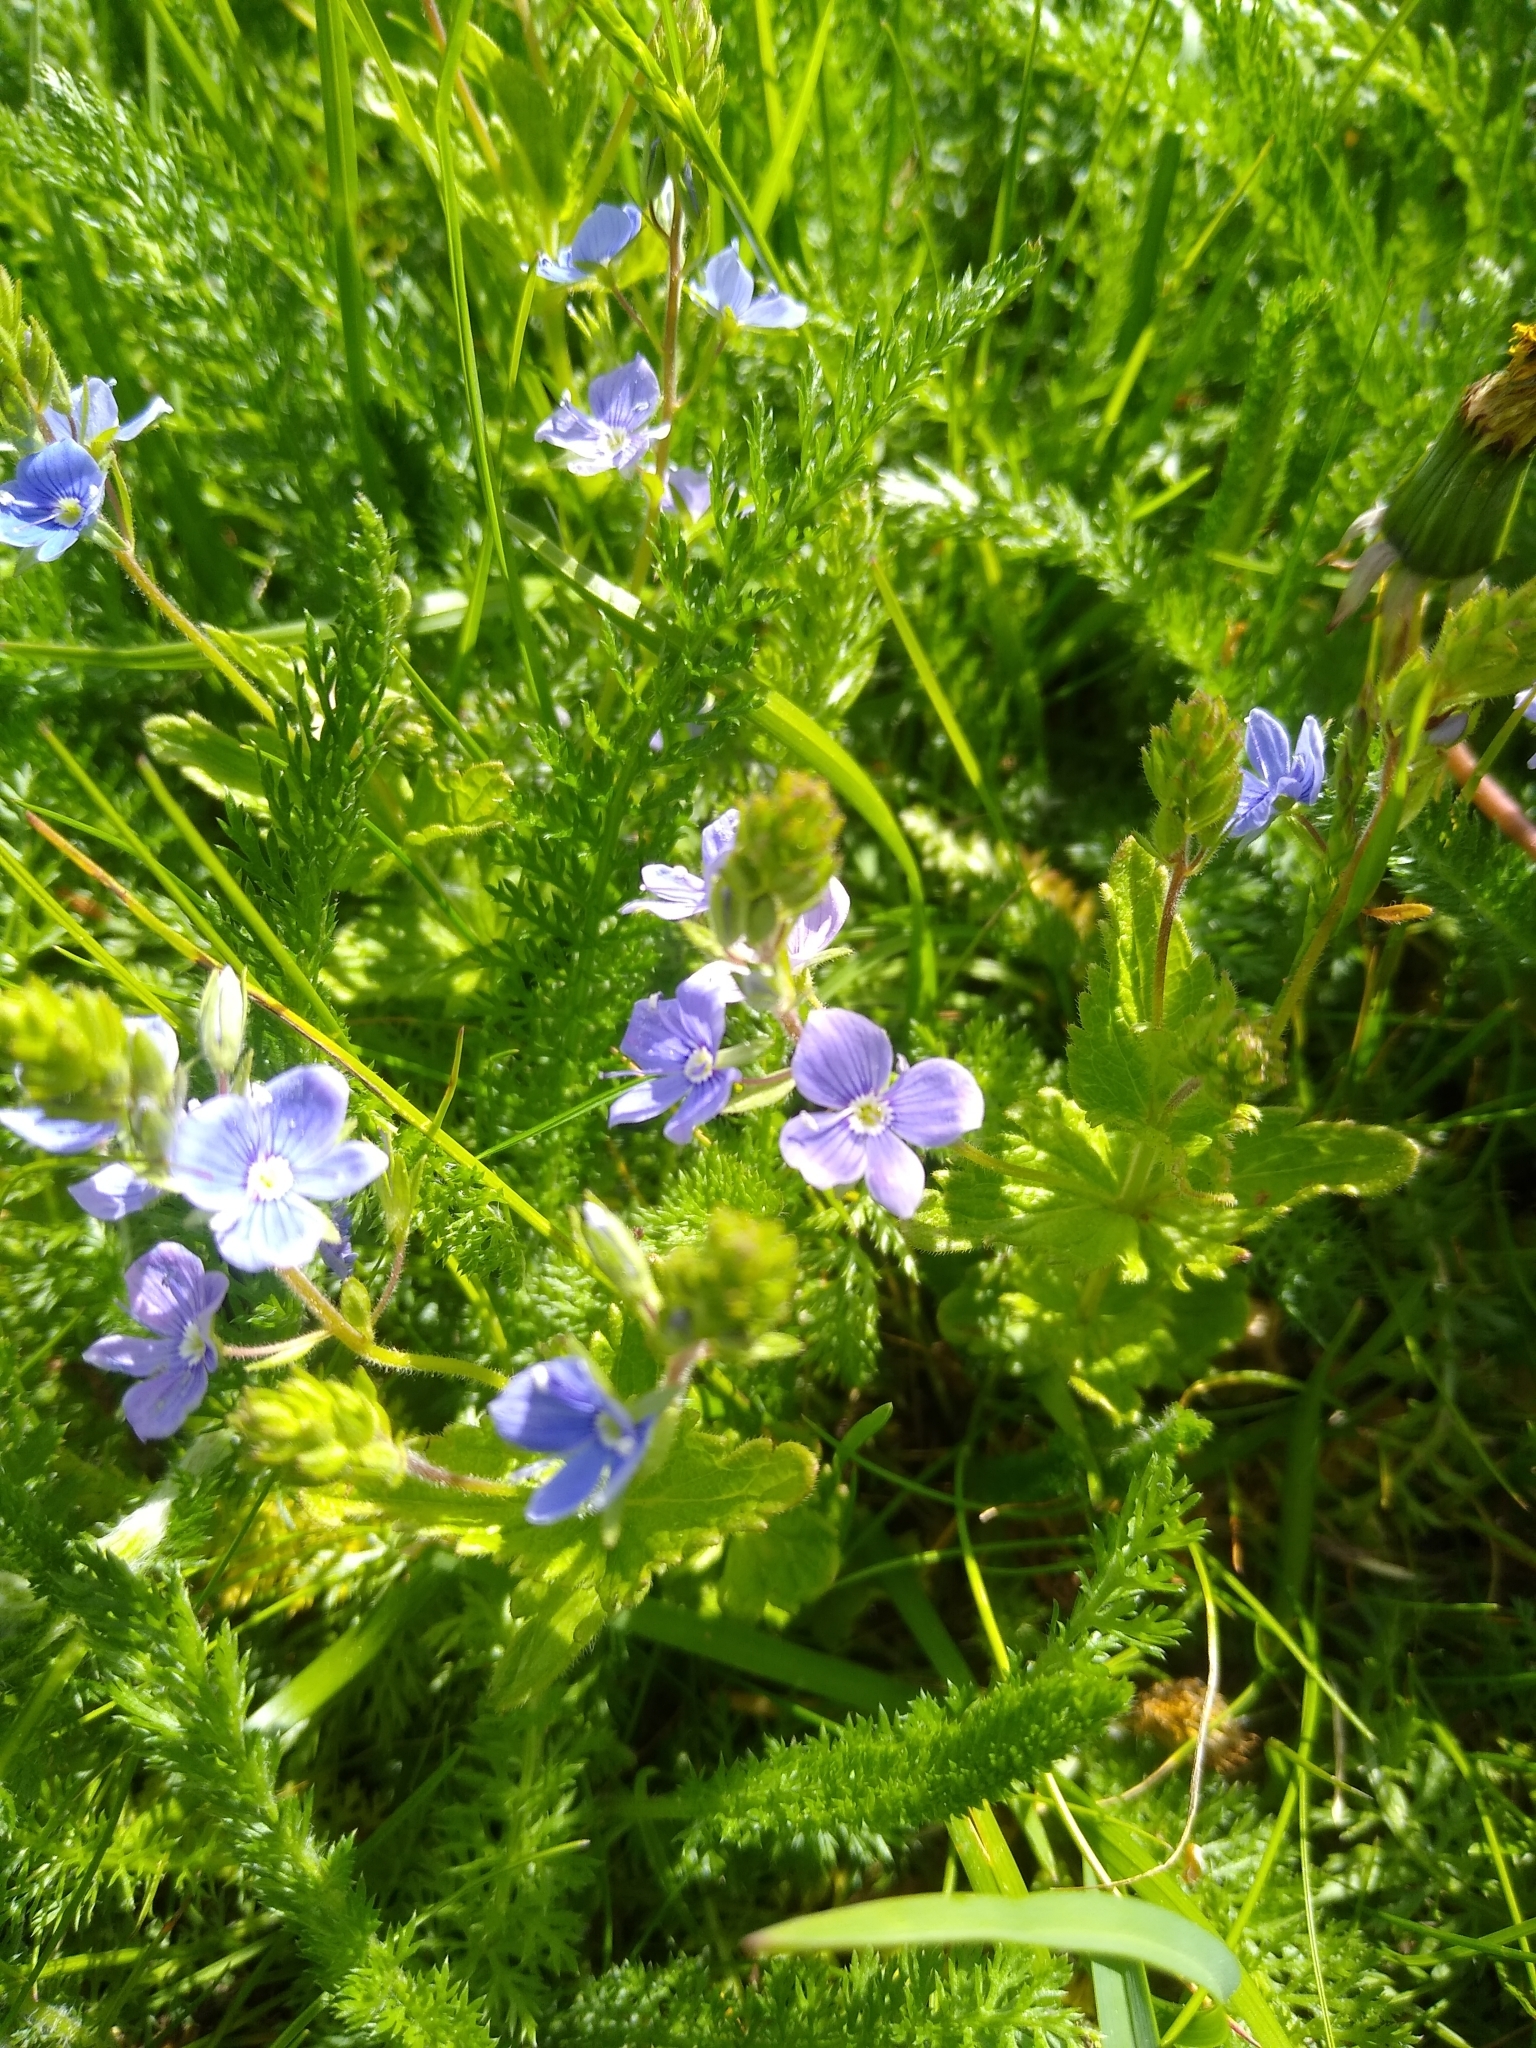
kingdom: Plantae
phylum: Tracheophyta
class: Magnoliopsida
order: Lamiales
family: Plantaginaceae
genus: Veronica
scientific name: Veronica chamaedrys
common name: Germander speedwell
